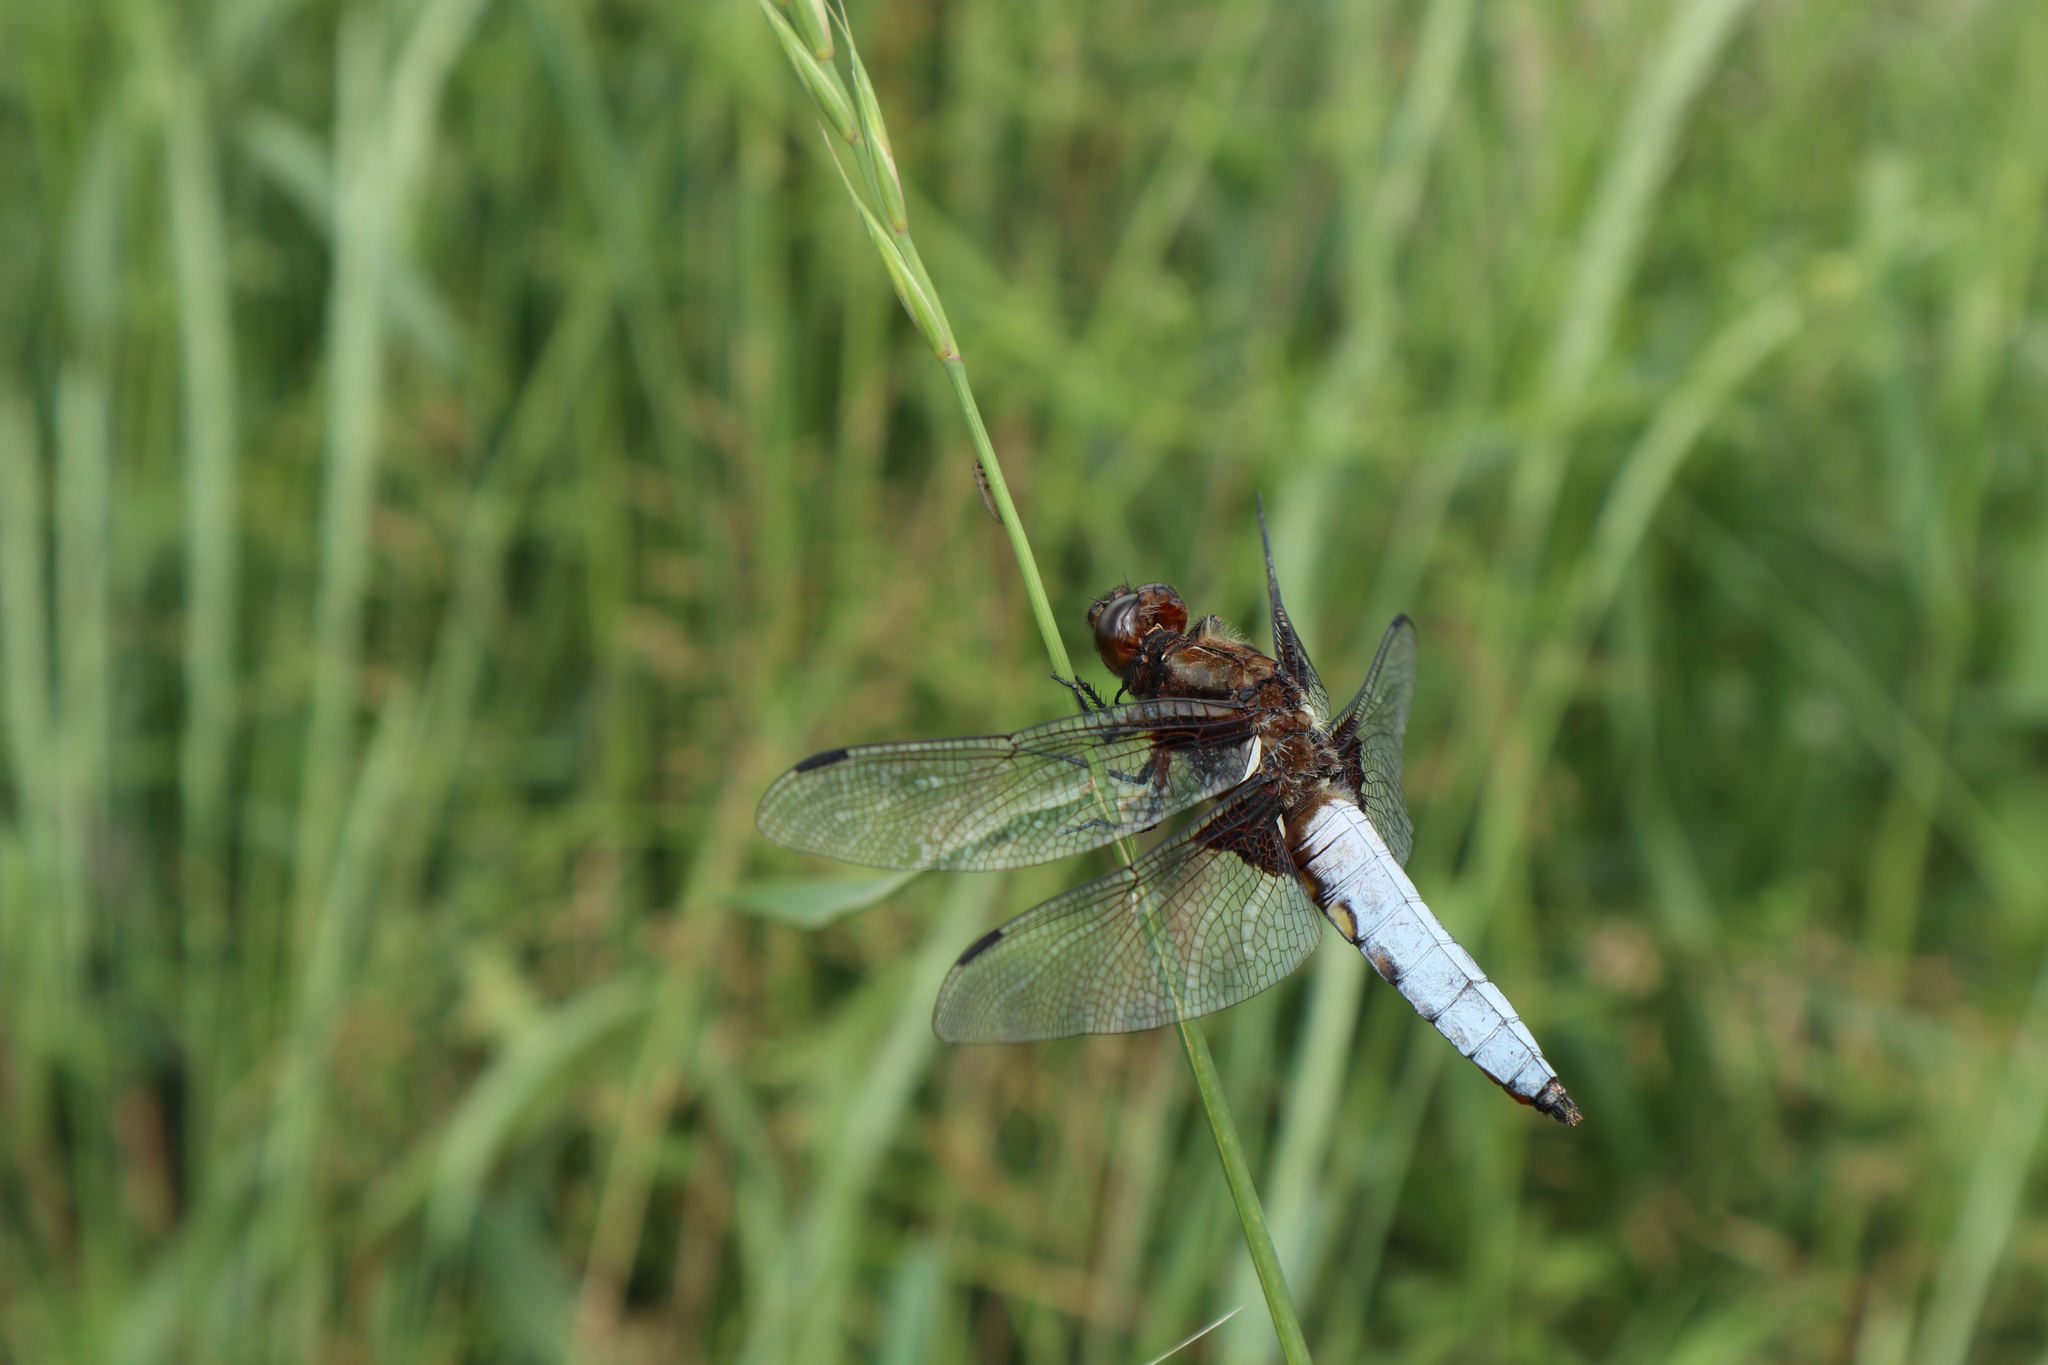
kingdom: Animalia
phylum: Arthropoda
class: Insecta
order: Odonata
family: Libellulidae
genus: Libellula
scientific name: Libellula depressa
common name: Broad-bodied chaser
